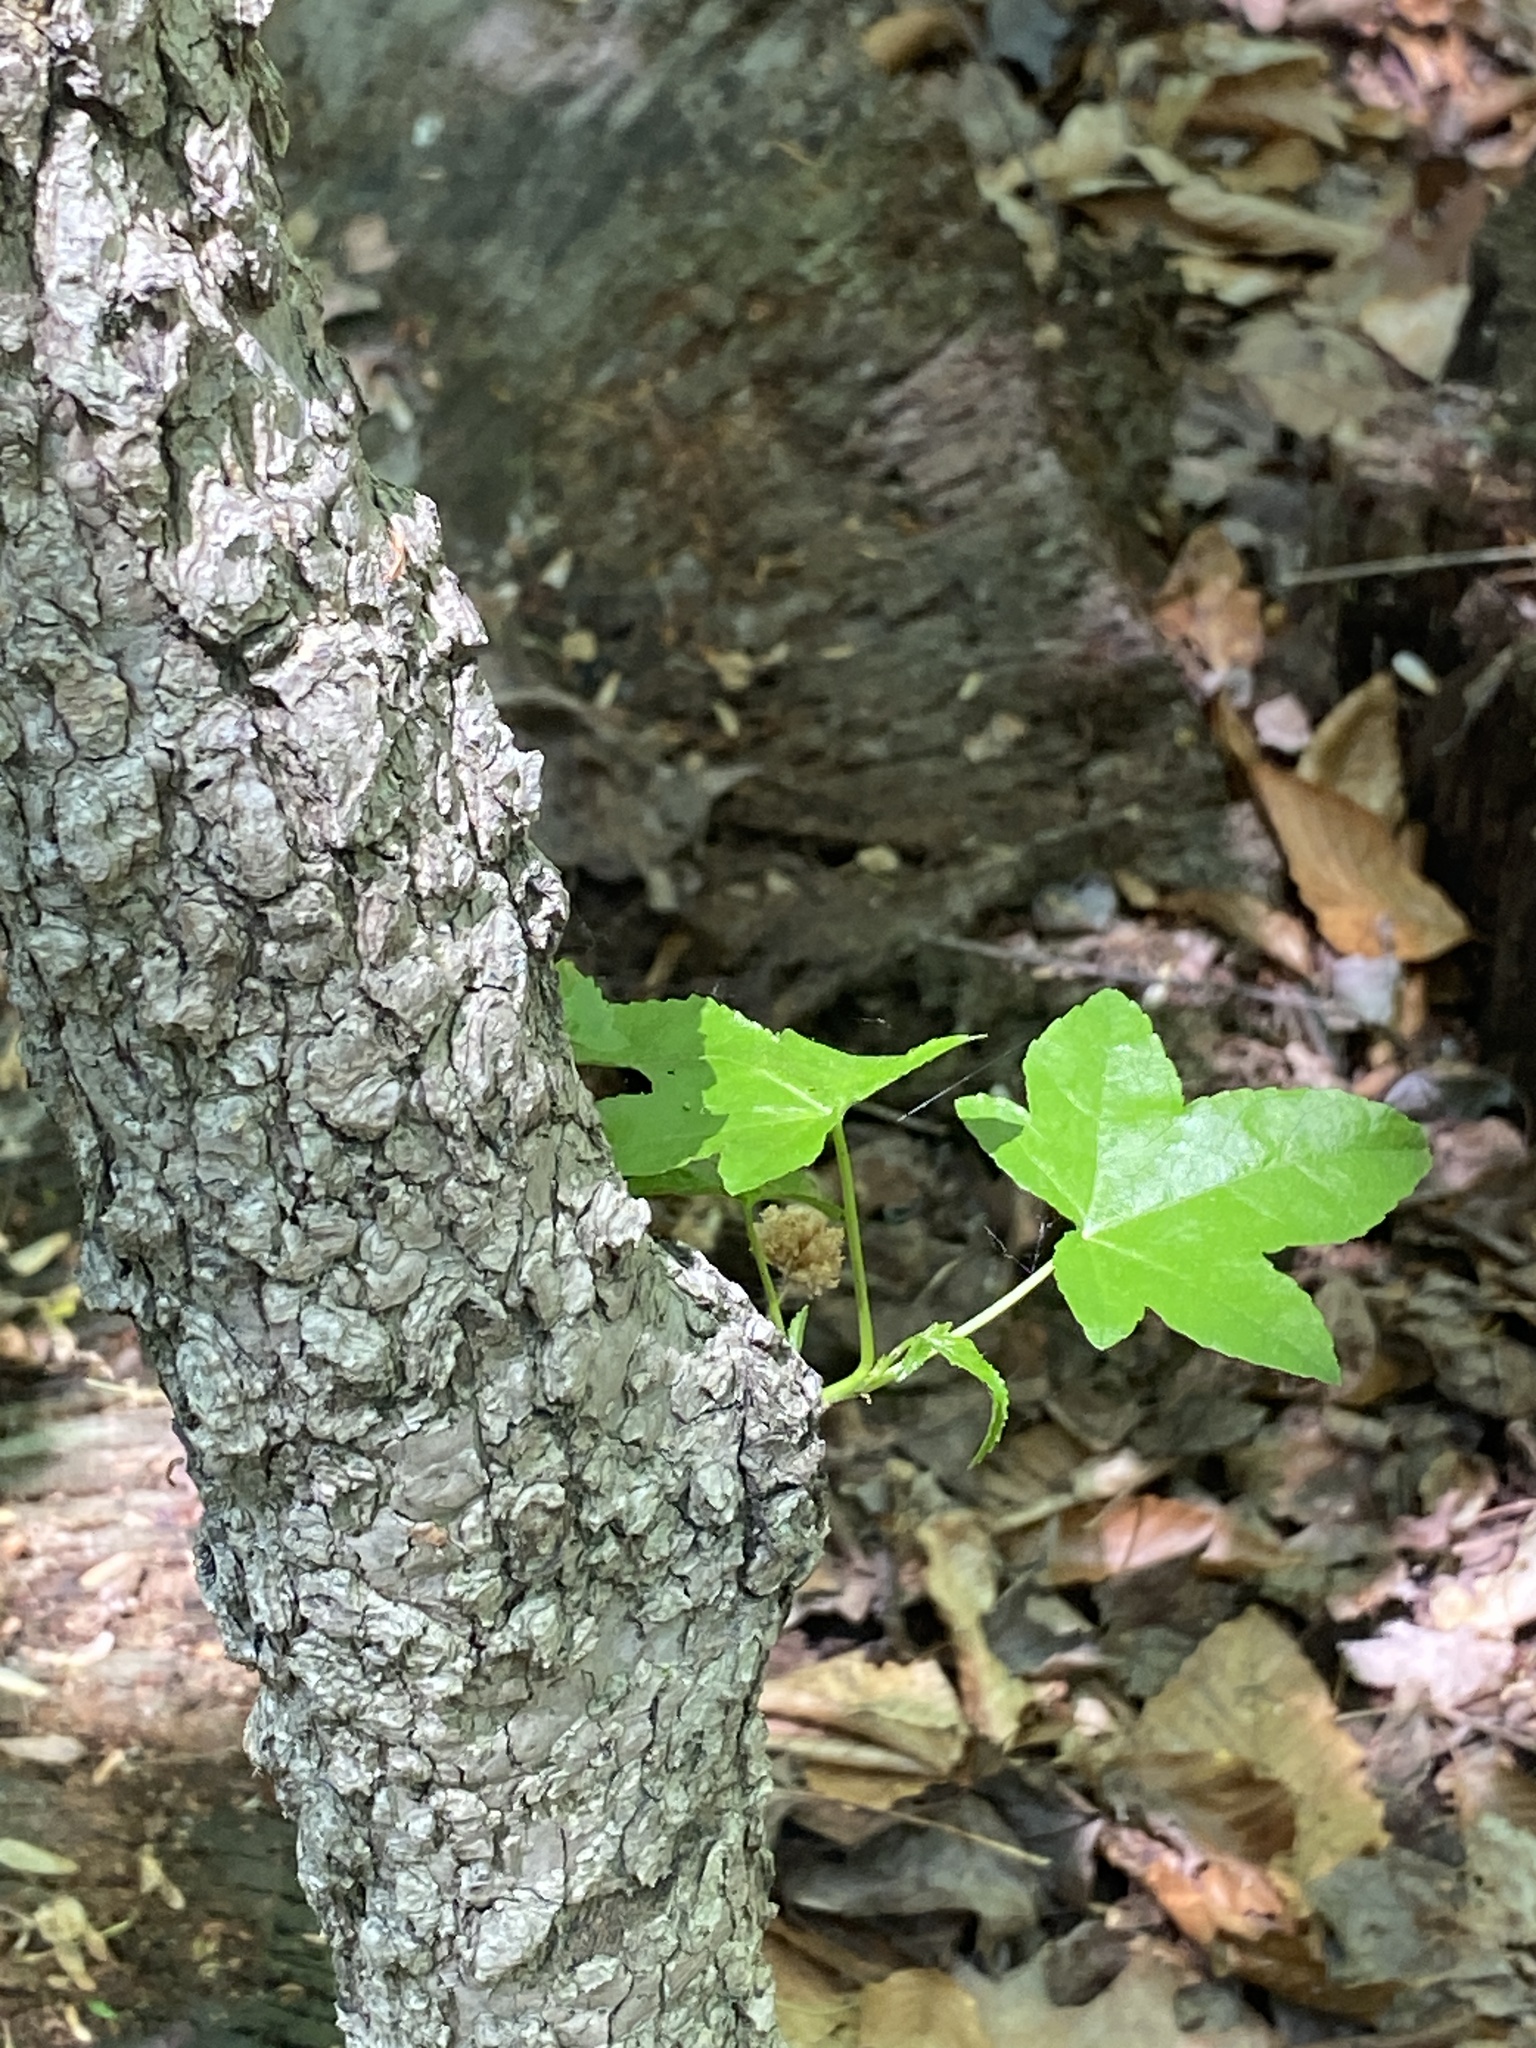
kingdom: Plantae
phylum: Tracheophyta
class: Magnoliopsida
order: Saxifragales
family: Altingiaceae
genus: Liquidambar
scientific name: Liquidambar styraciflua
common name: Sweet gum
